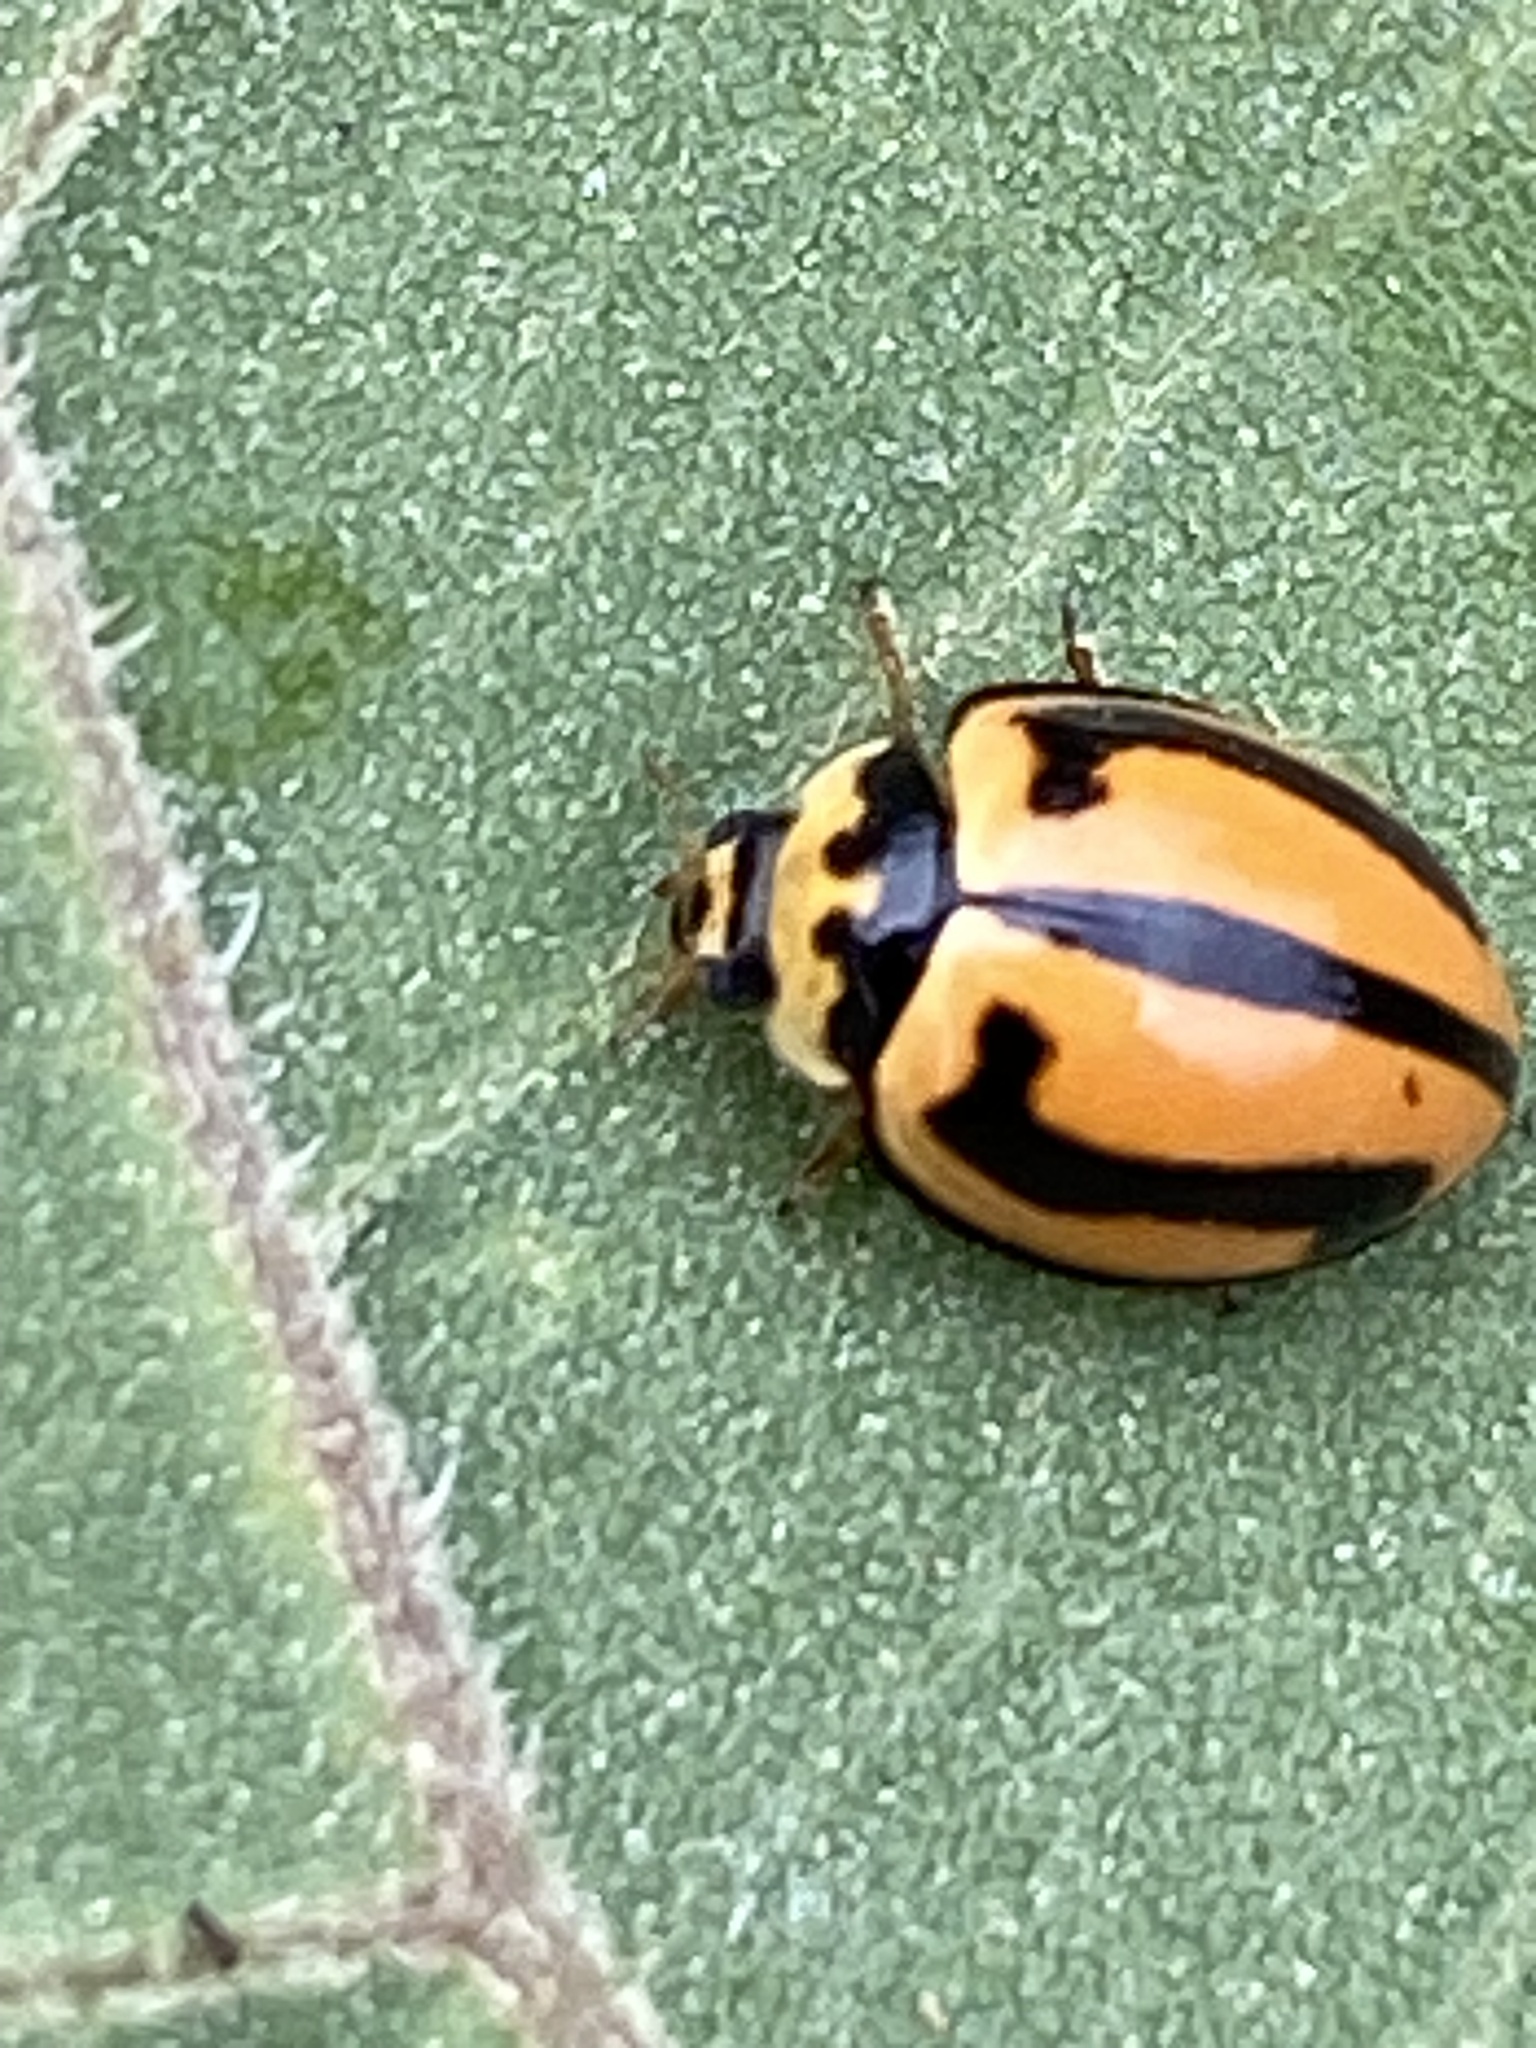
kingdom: Animalia
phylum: Arthropoda
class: Insecta
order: Coleoptera
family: Coccinellidae
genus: Micraspis
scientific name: Micraspis frenata
